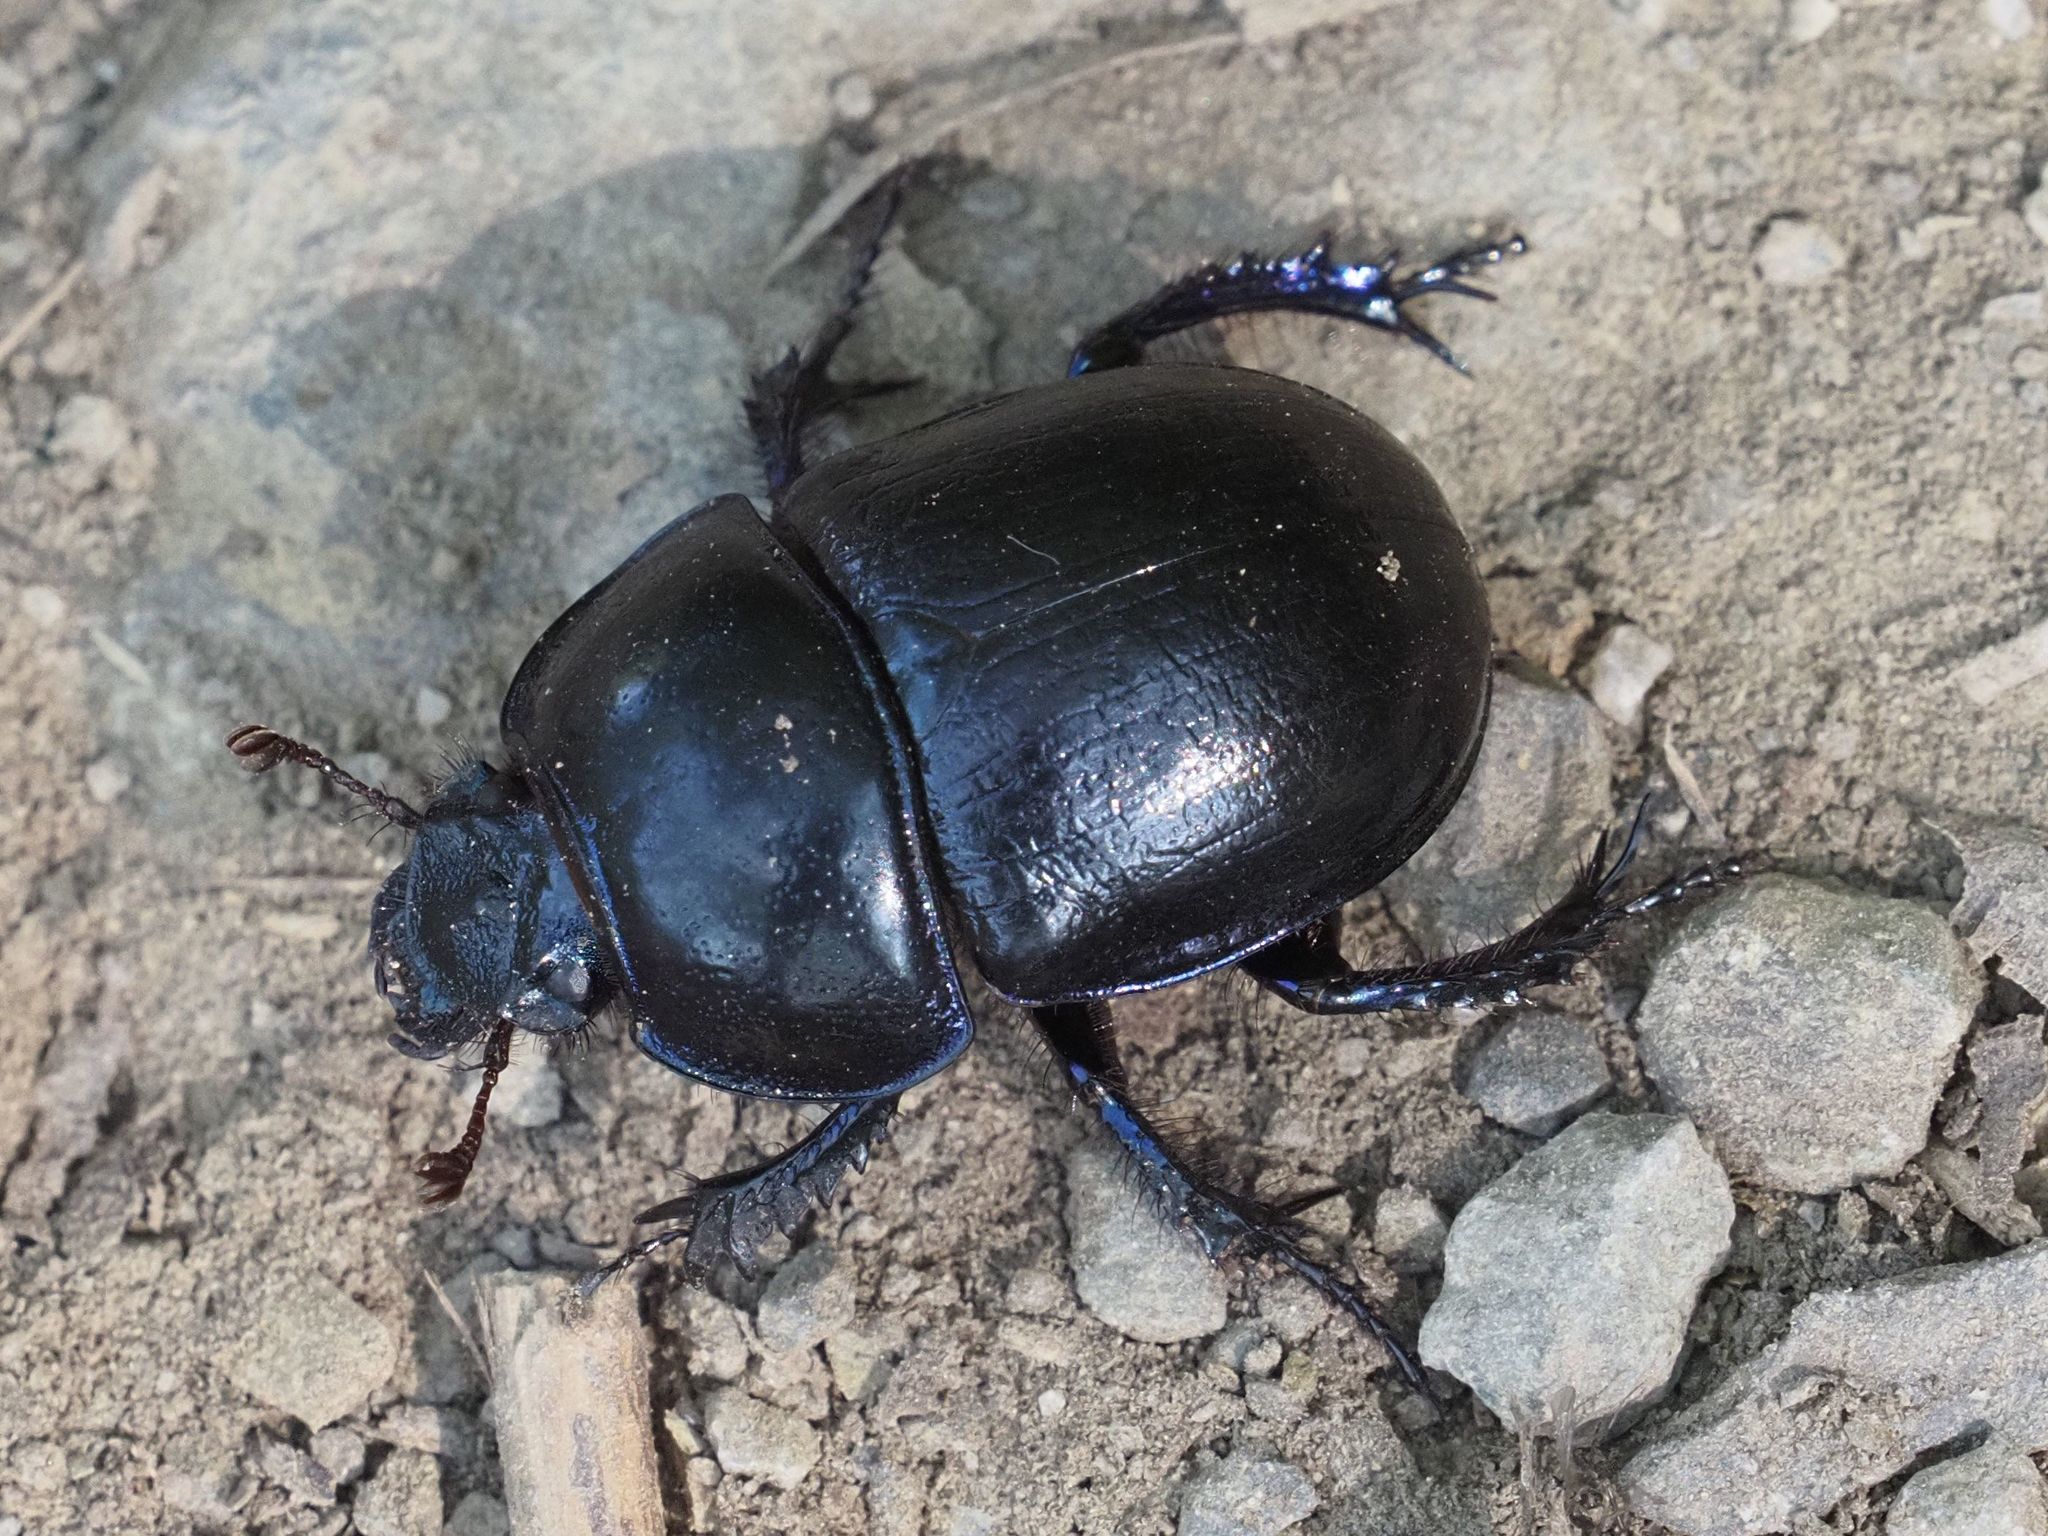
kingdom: Animalia
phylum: Arthropoda
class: Insecta
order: Coleoptera
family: Geotrupidae
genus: Anoplotrupes
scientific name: Anoplotrupes stercorosus
